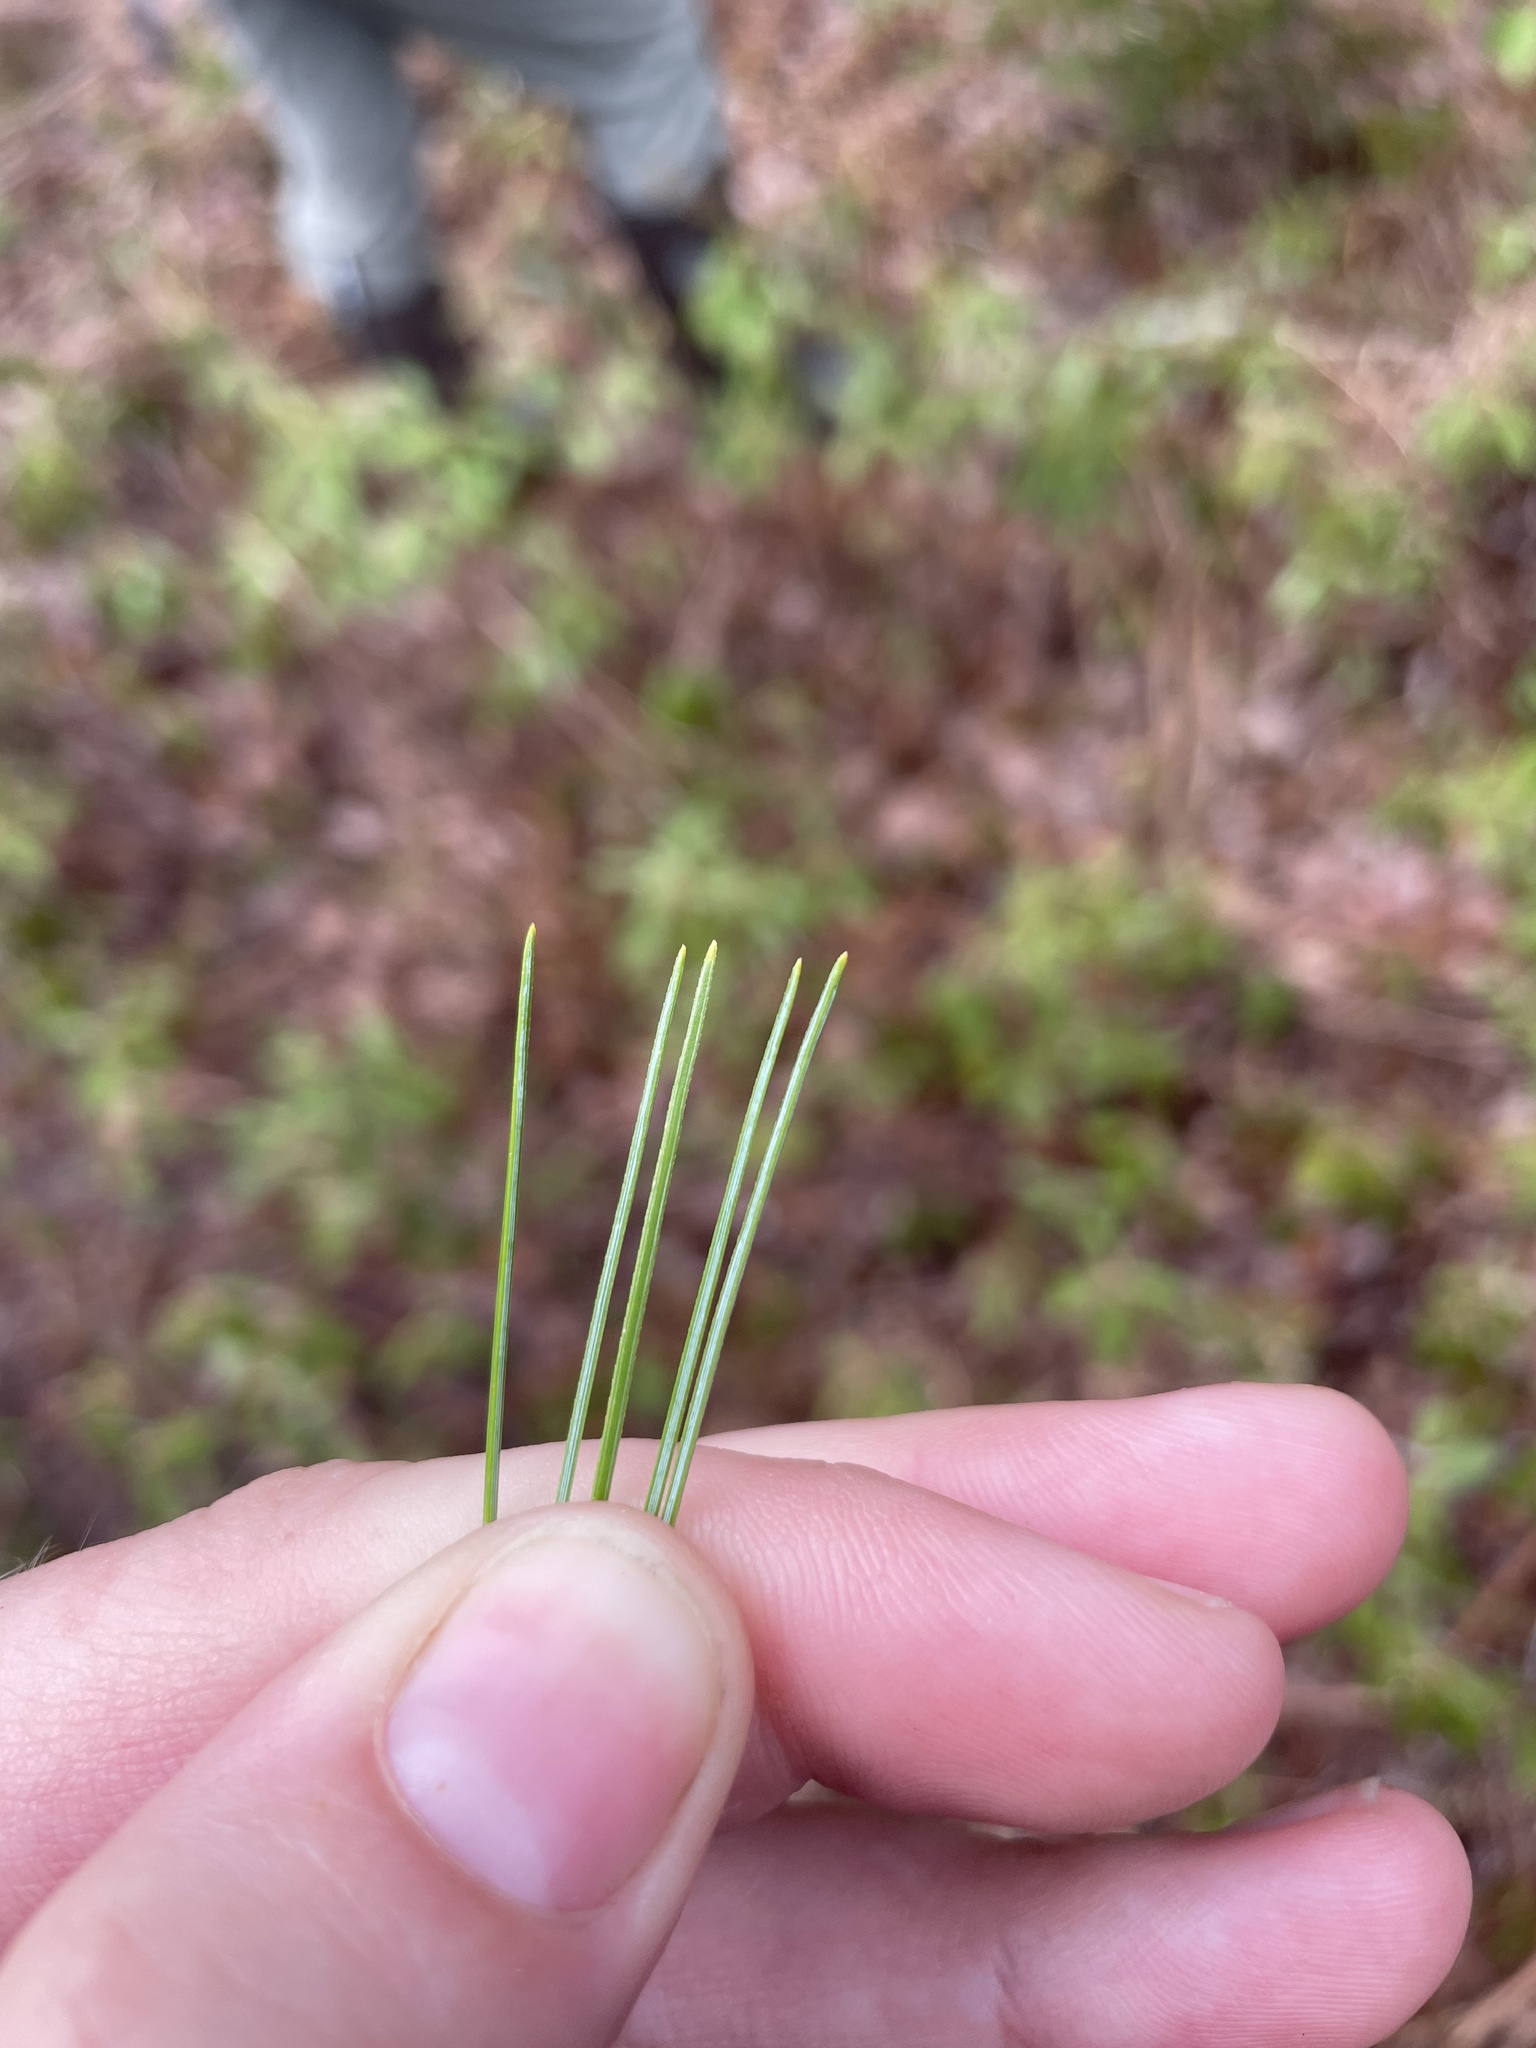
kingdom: Plantae
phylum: Tracheophyta
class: Pinopsida
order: Pinales
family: Pinaceae
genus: Pinus
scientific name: Pinus strobus
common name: Weymouth pine
